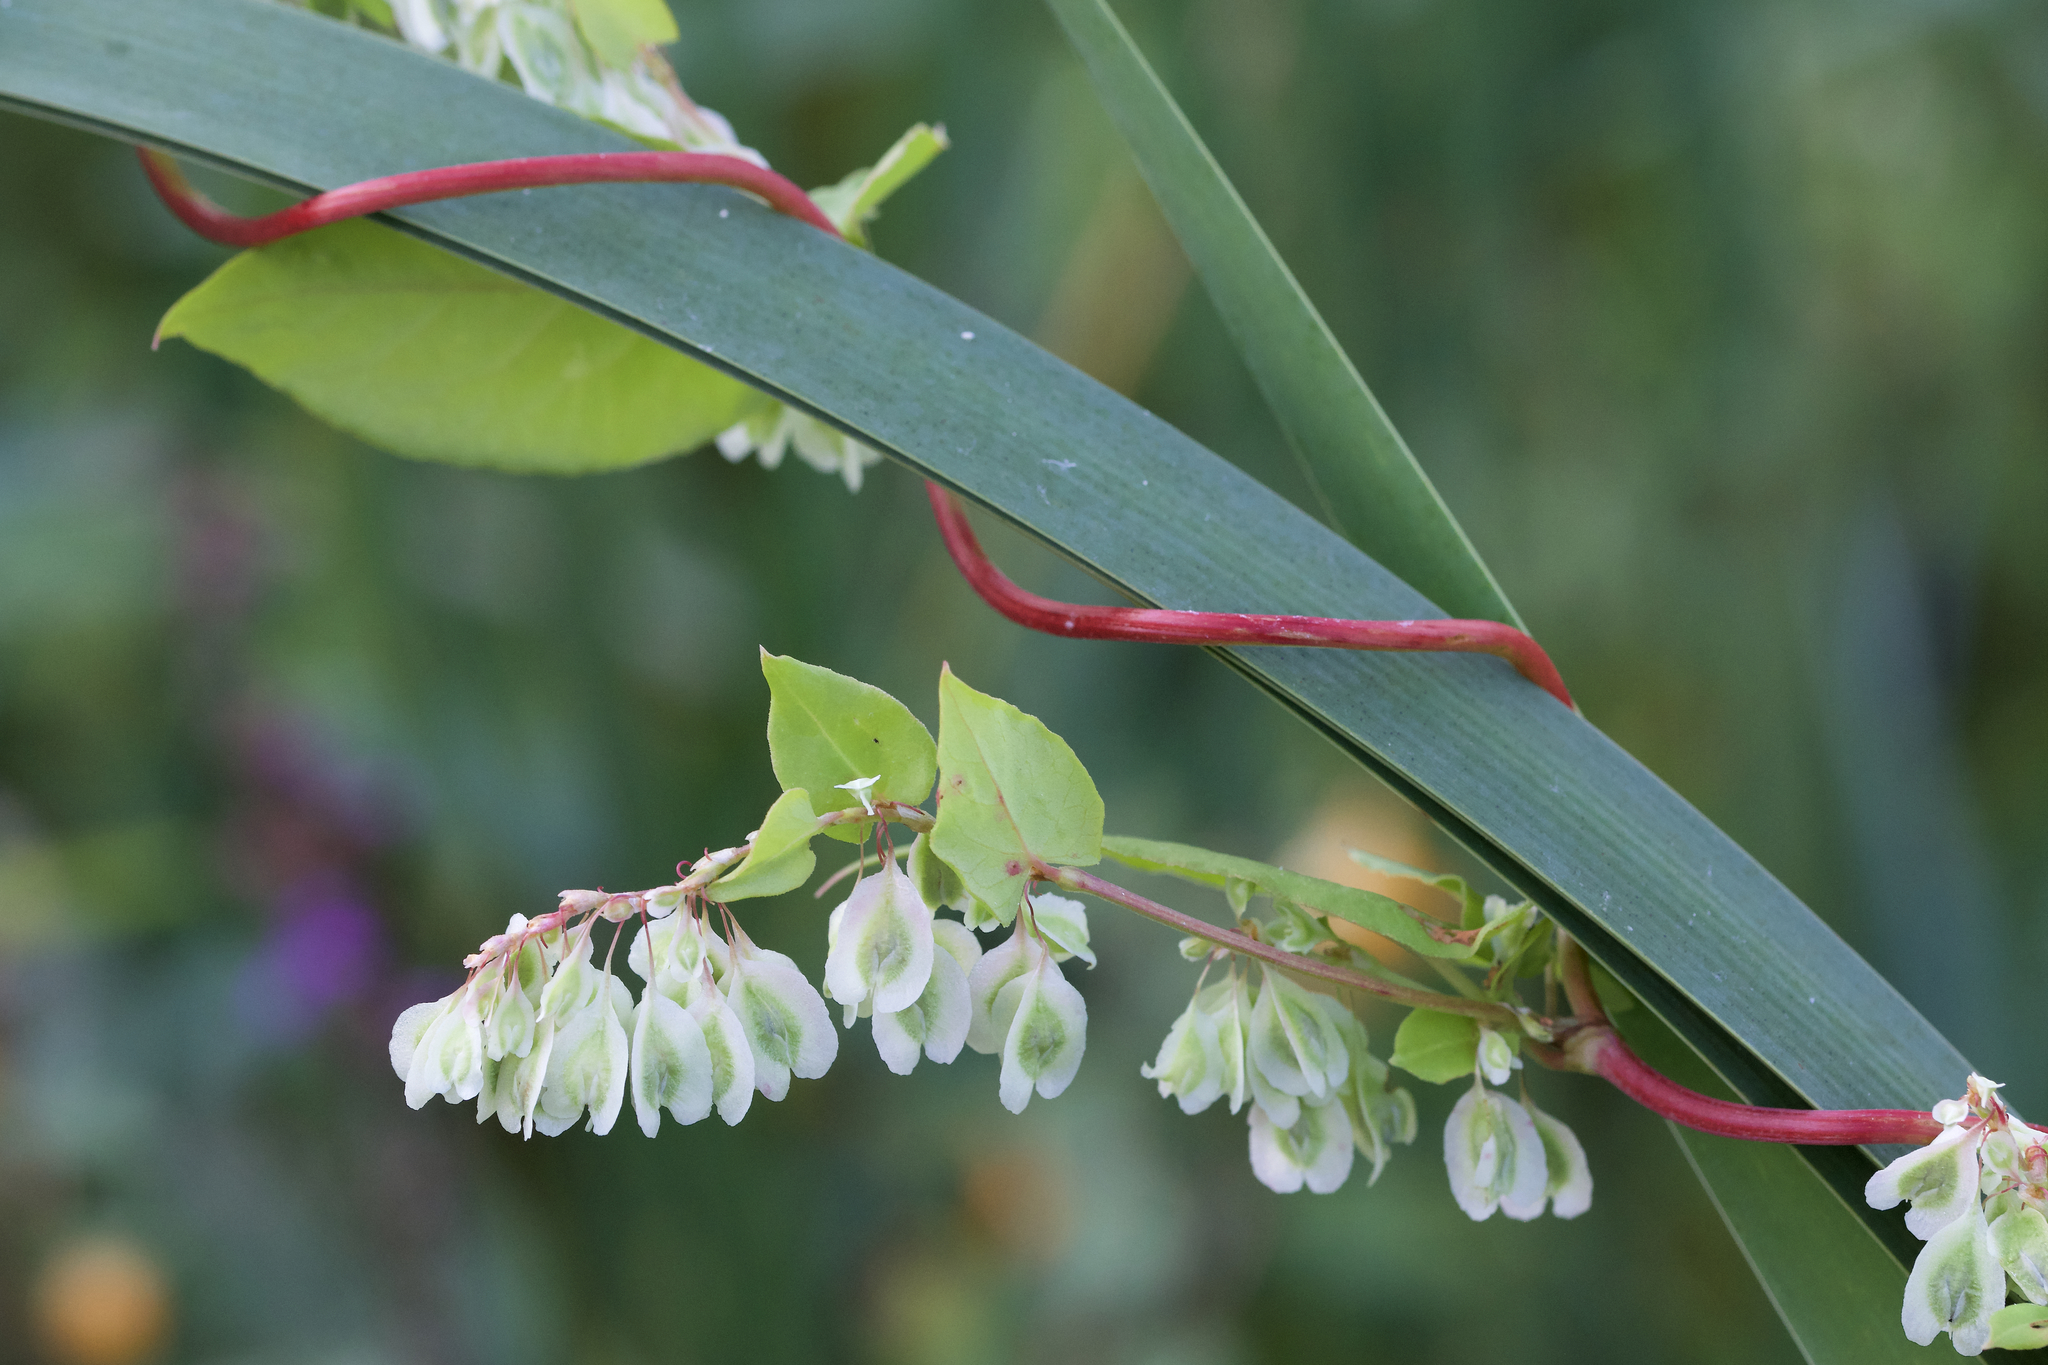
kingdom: Plantae
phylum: Tracheophyta
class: Magnoliopsida
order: Caryophyllales
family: Polygonaceae
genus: Fallopia
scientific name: Fallopia scandens
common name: Climbing false buckwheat
